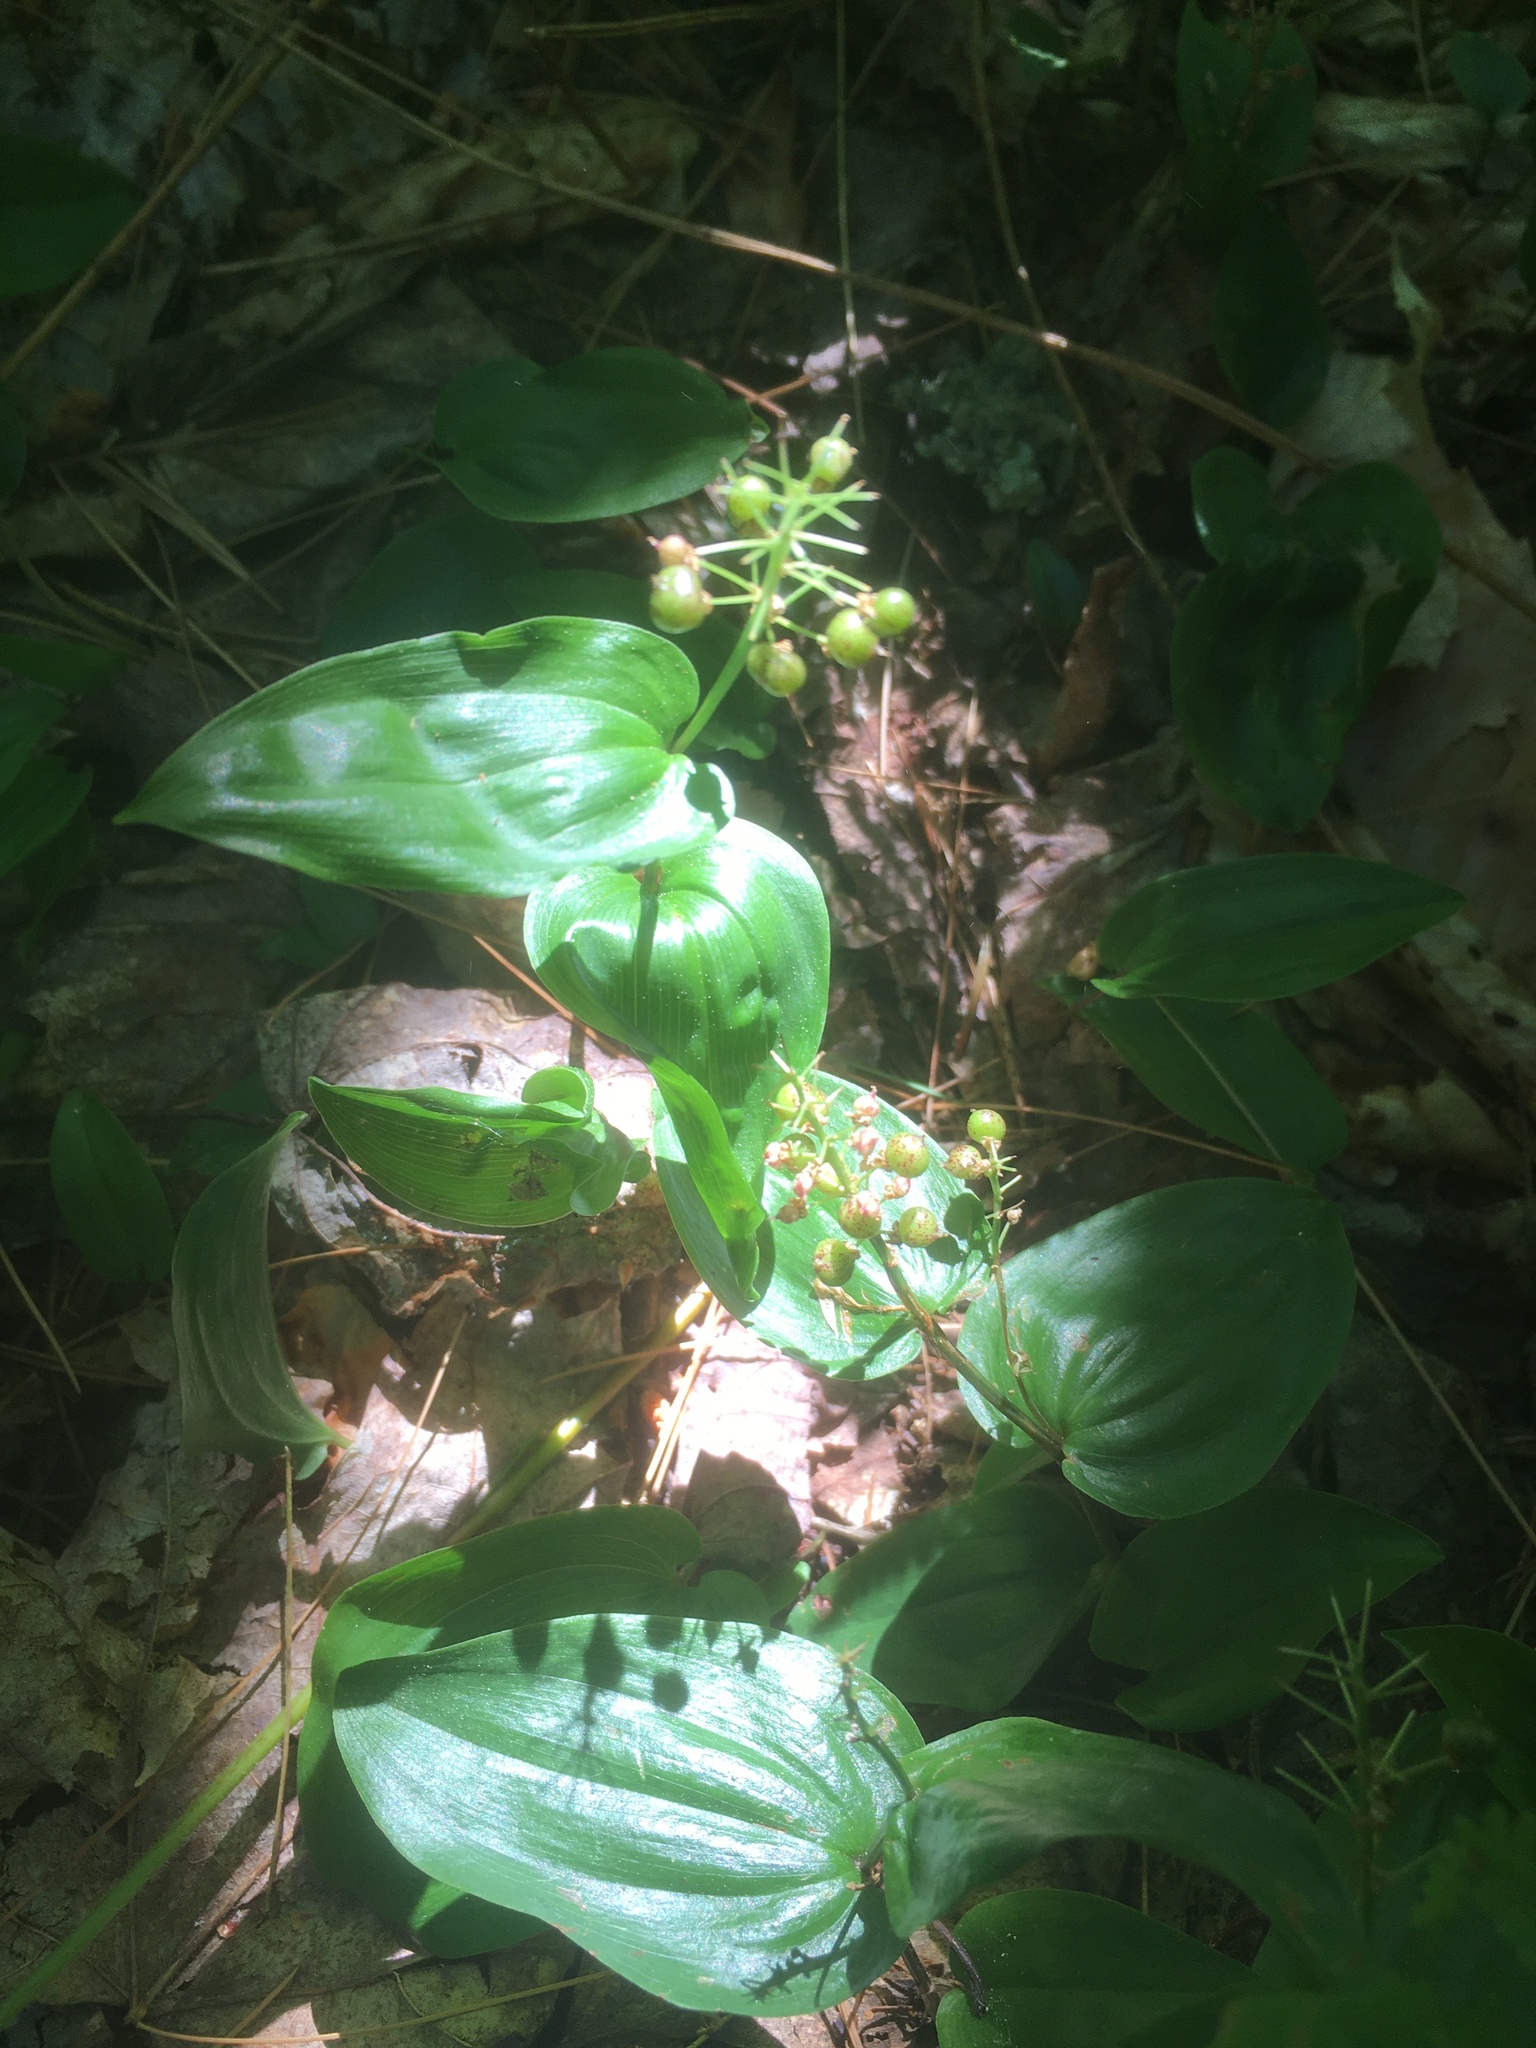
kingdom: Plantae
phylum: Tracheophyta
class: Liliopsida
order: Asparagales
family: Asparagaceae
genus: Maianthemum
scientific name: Maianthemum canadense
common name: False lily-of-the-valley
